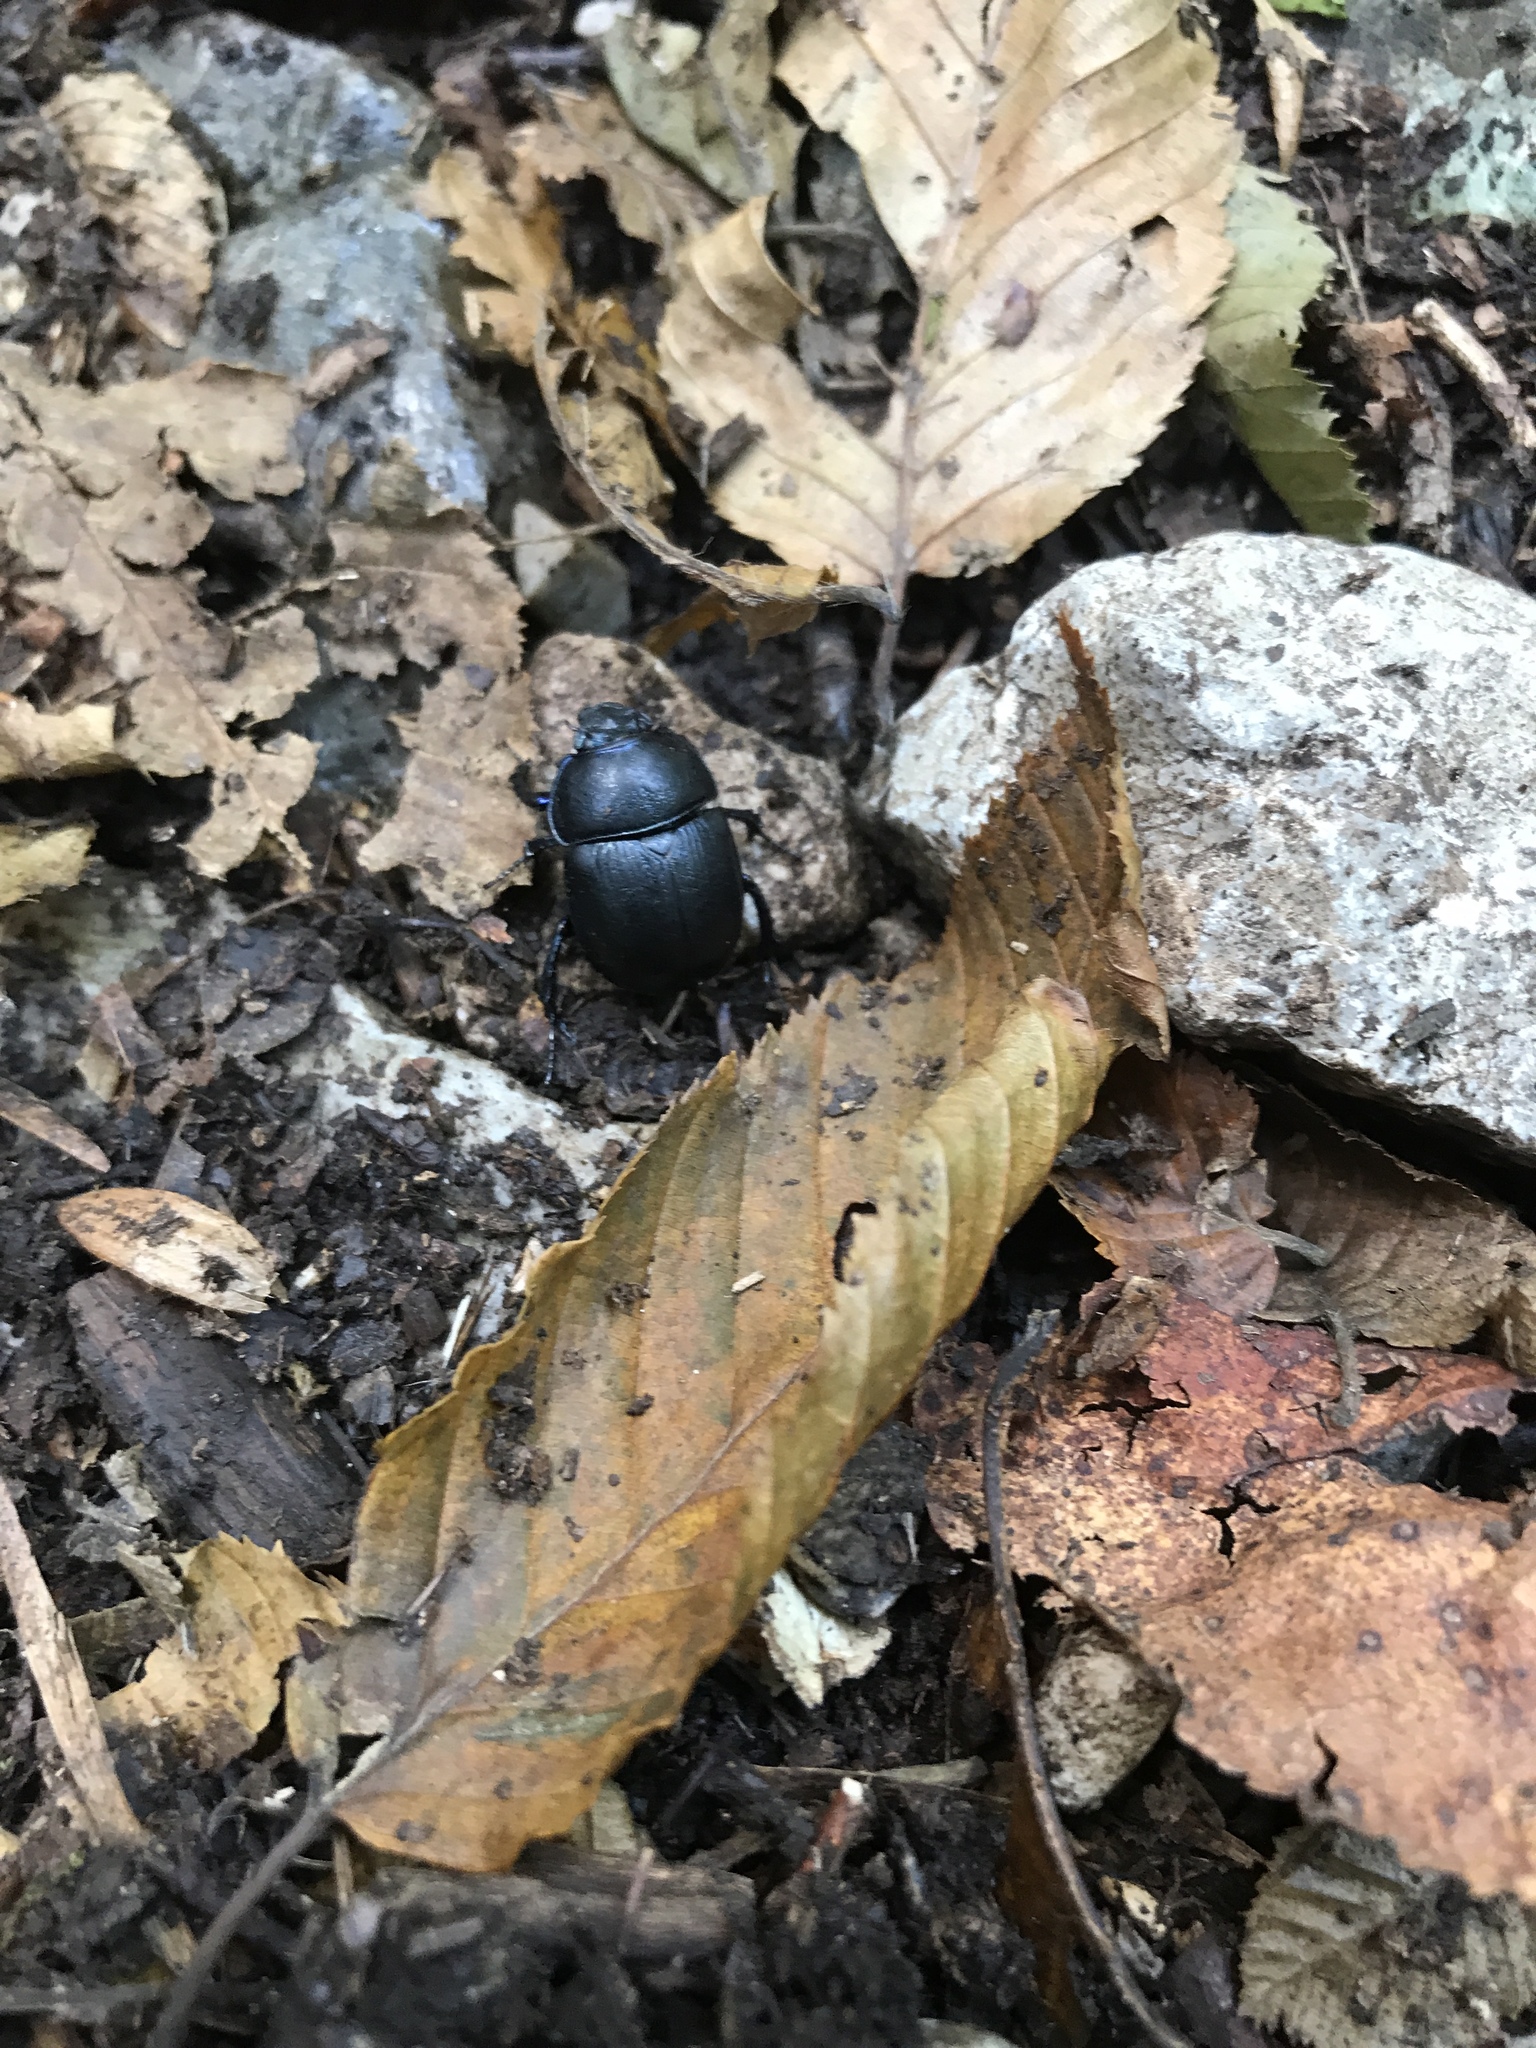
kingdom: Animalia
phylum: Arthropoda
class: Insecta
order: Coleoptera
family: Geotrupidae
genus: Anoplotrupes
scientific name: Anoplotrupes stercorosus
